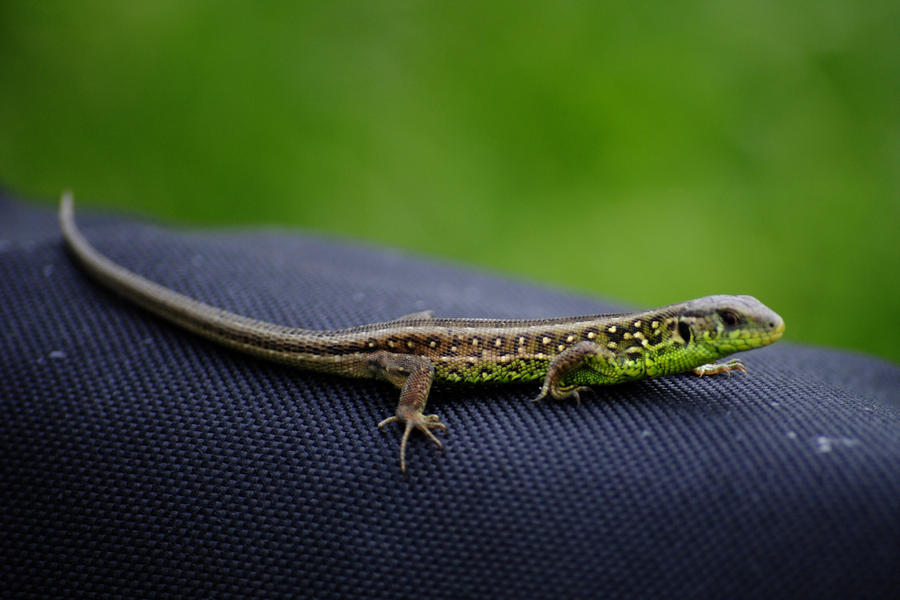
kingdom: Animalia
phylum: Chordata
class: Squamata
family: Lacertidae
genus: Lacerta
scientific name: Lacerta agilis
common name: Sand lizard
